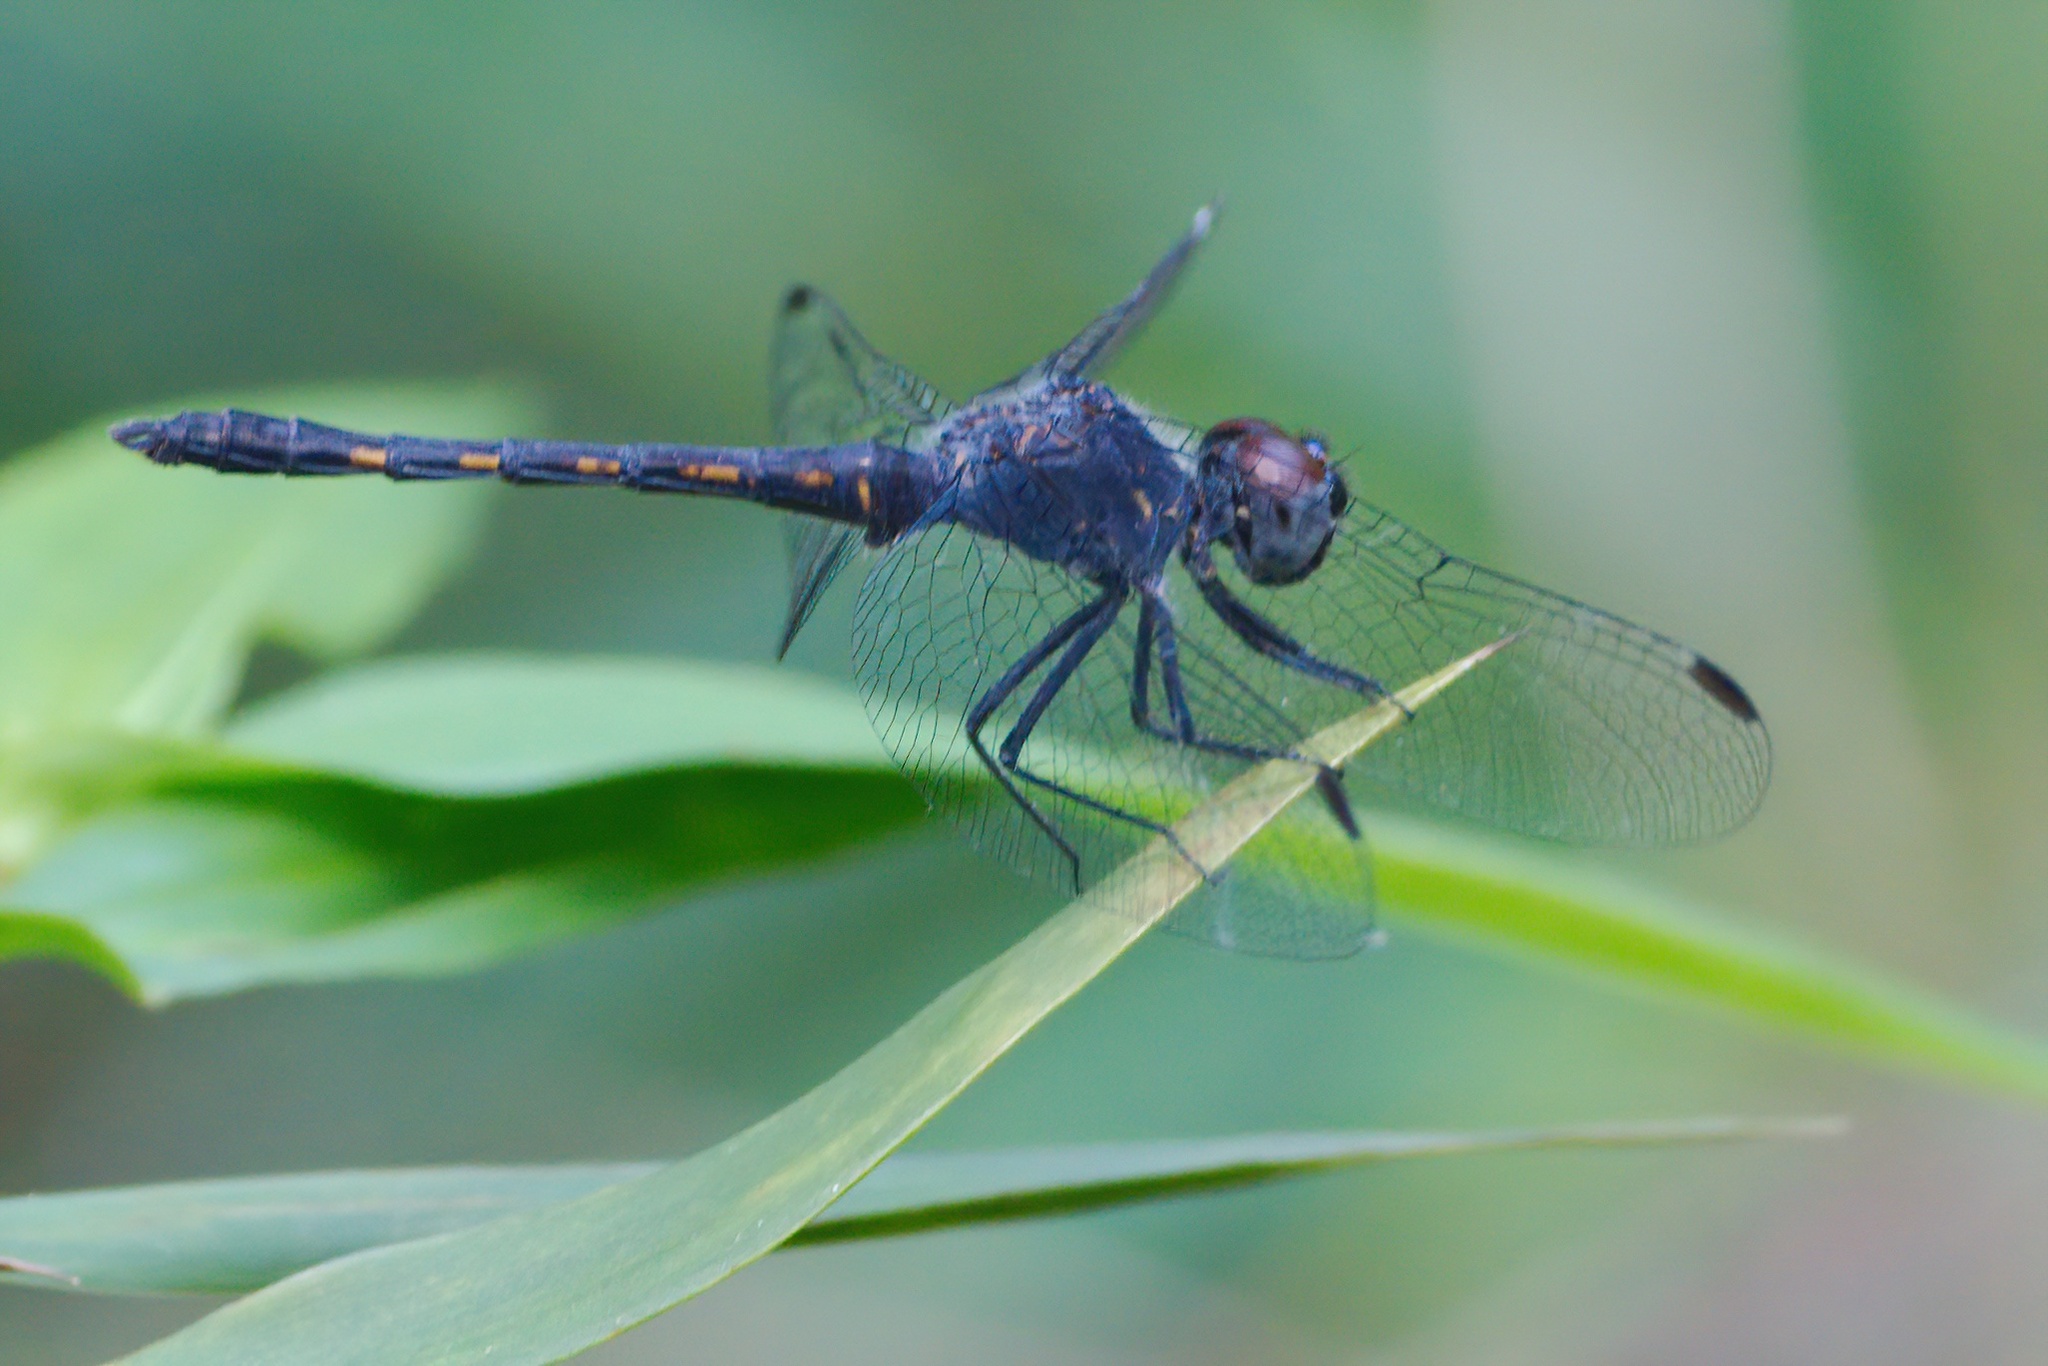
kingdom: Animalia
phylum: Arthropoda
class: Insecta
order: Odonata
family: Libellulidae
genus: Erythrodiplax
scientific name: Erythrodiplax berenice
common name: Seaside dragonlet
